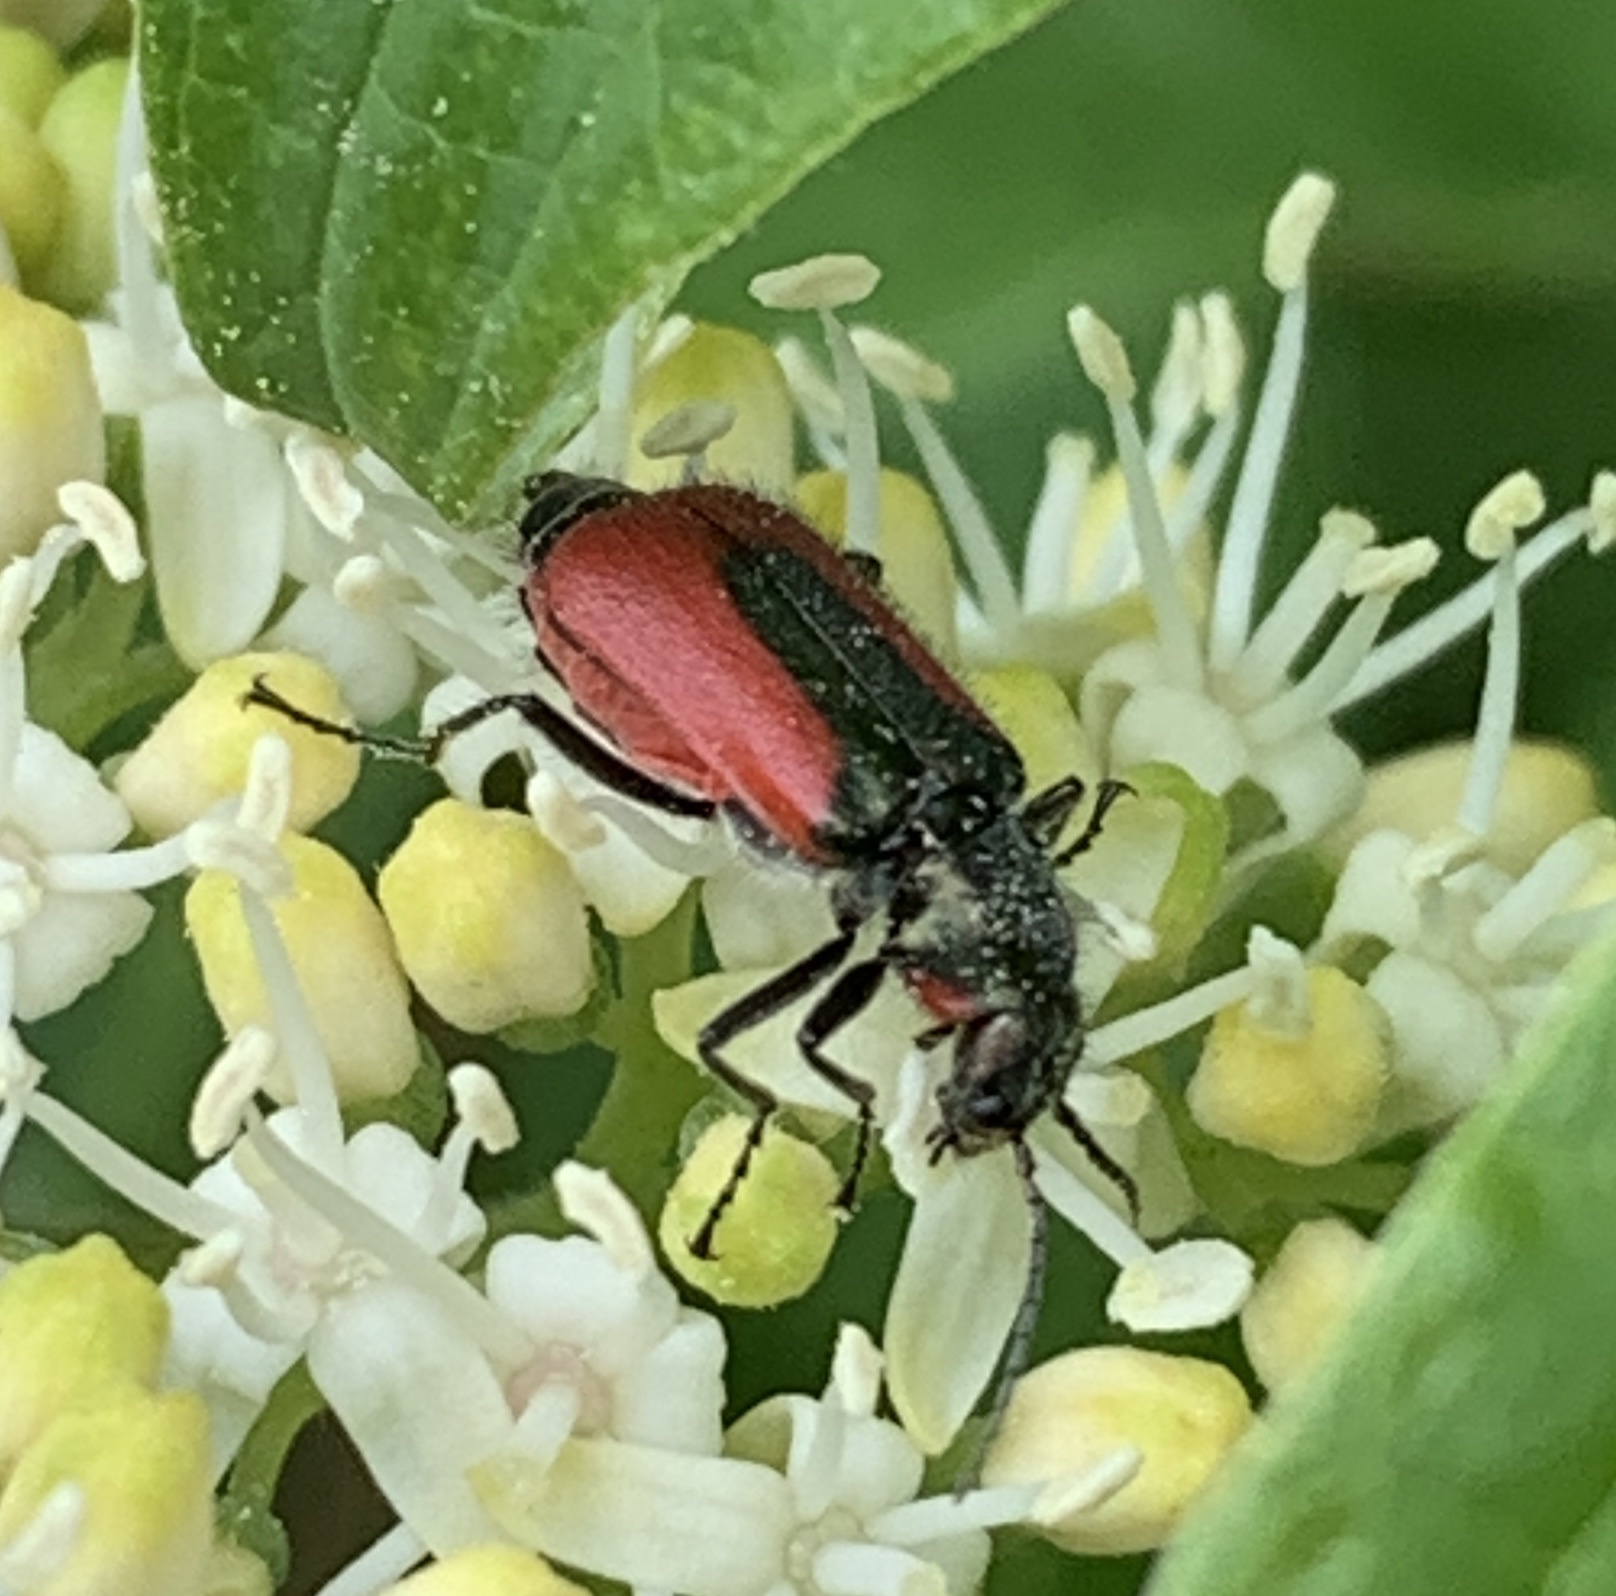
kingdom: Animalia
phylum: Arthropoda
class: Insecta
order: Coleoptera
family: Melyridae
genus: Malachius
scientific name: Malachius aeneus
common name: Scarlet malachite beetle
